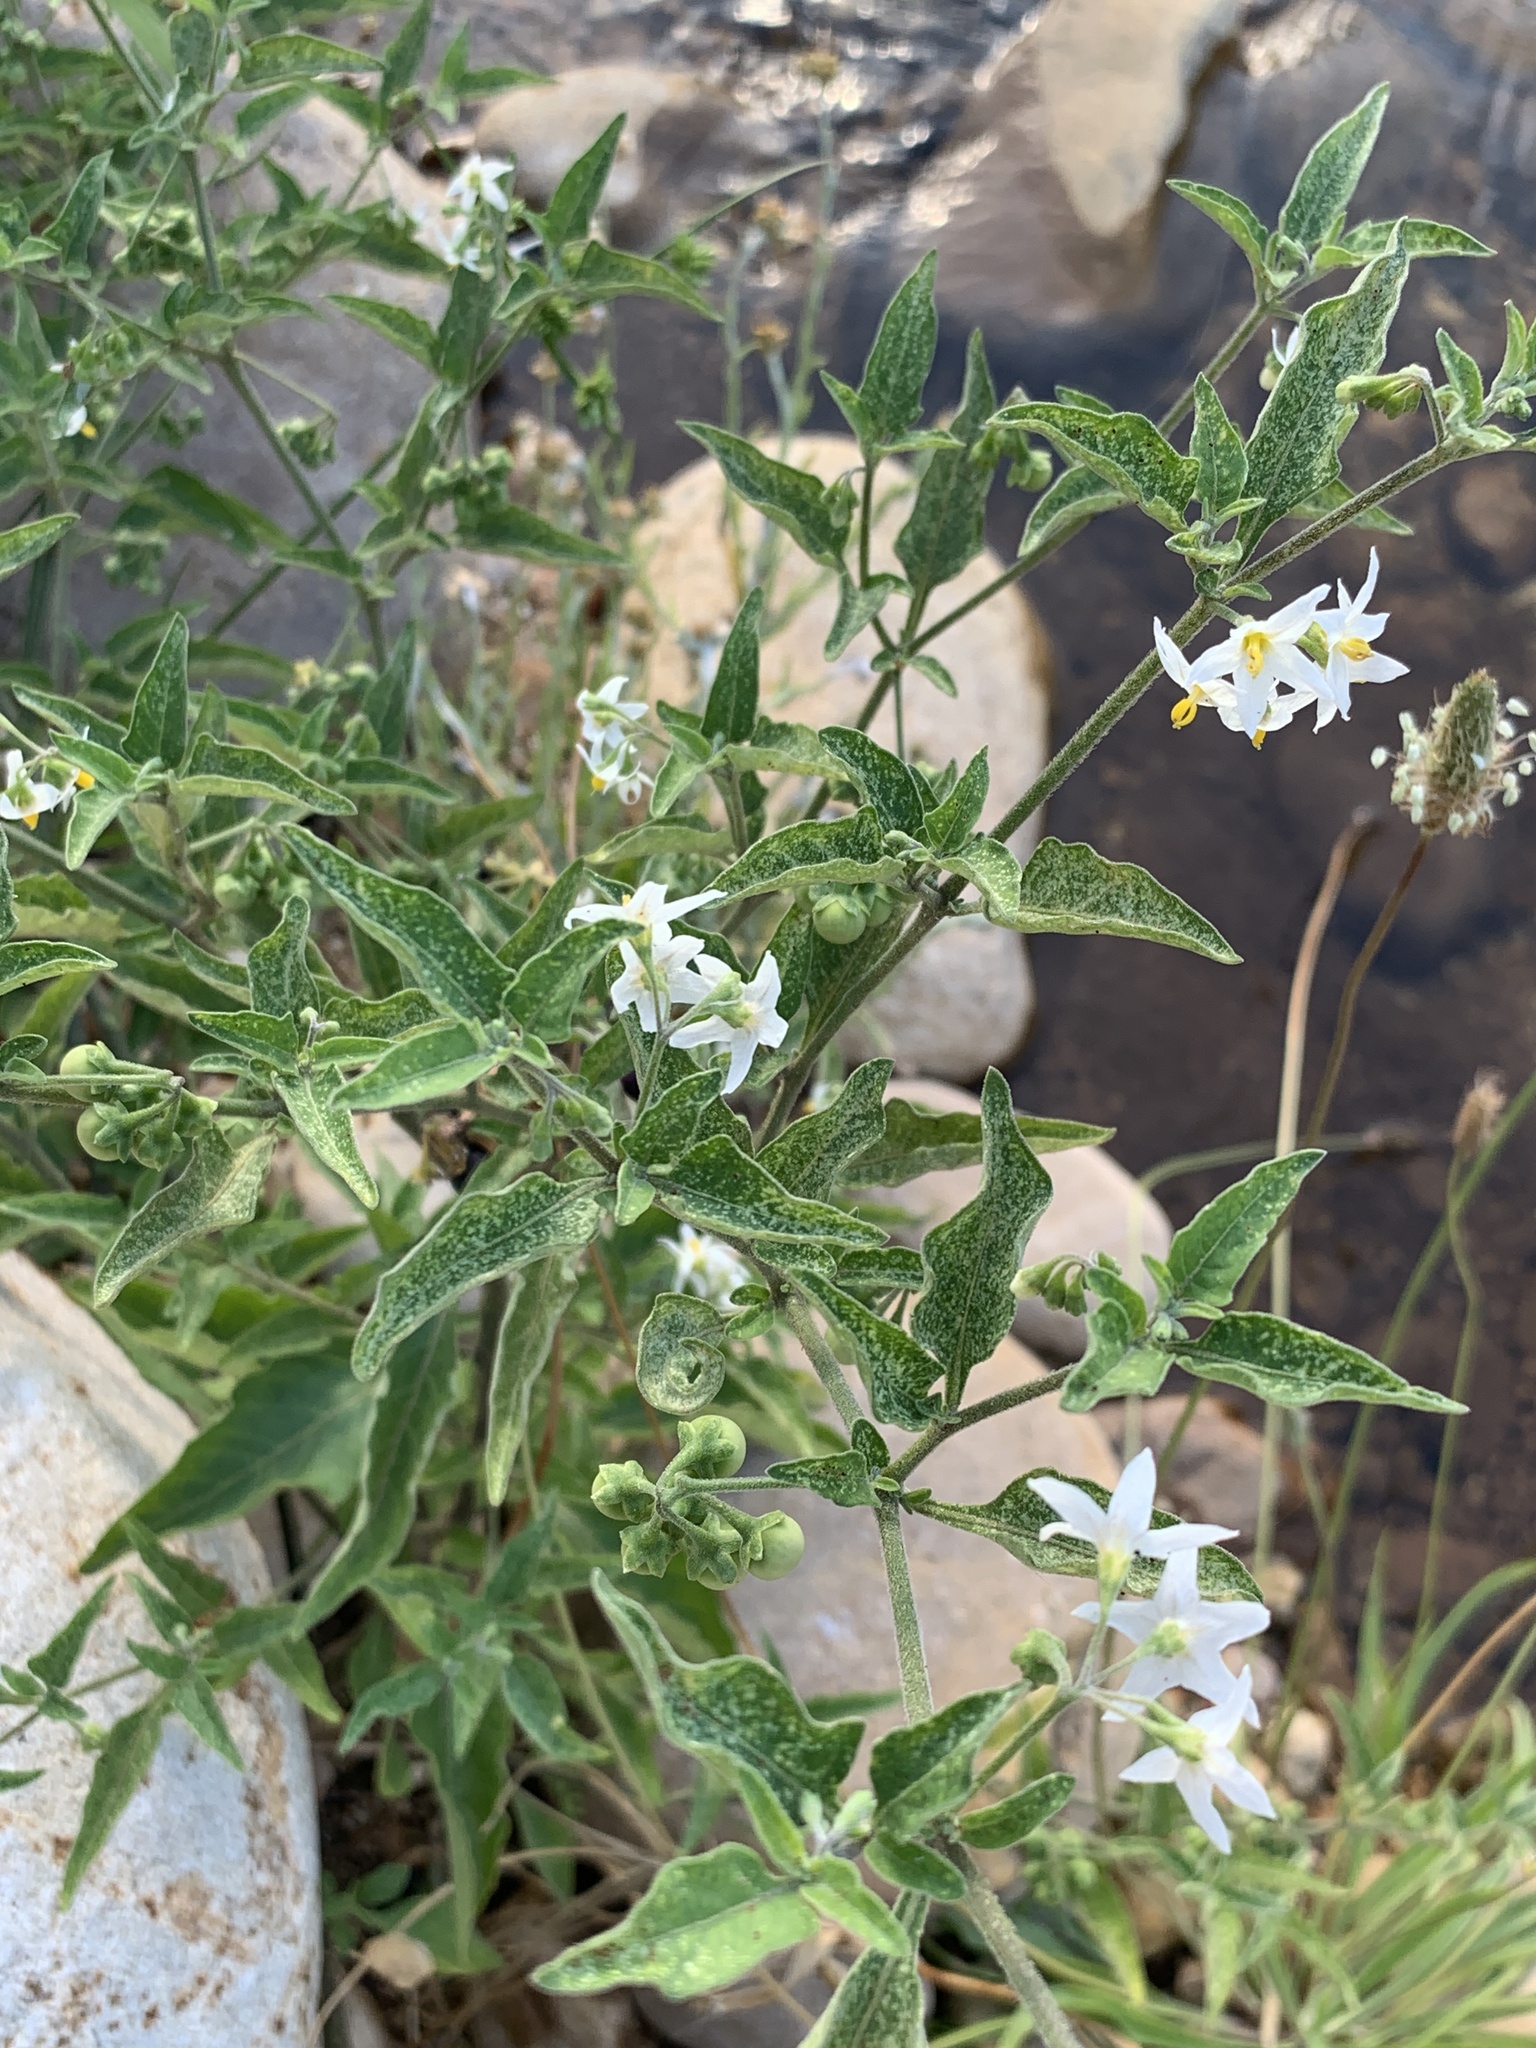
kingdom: Plantae
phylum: Tracheophyta
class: Magnoliopsida
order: Solanales
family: Solanaceae
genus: Solanum
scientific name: Solanum chenopodioides
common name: Tall nightshade
